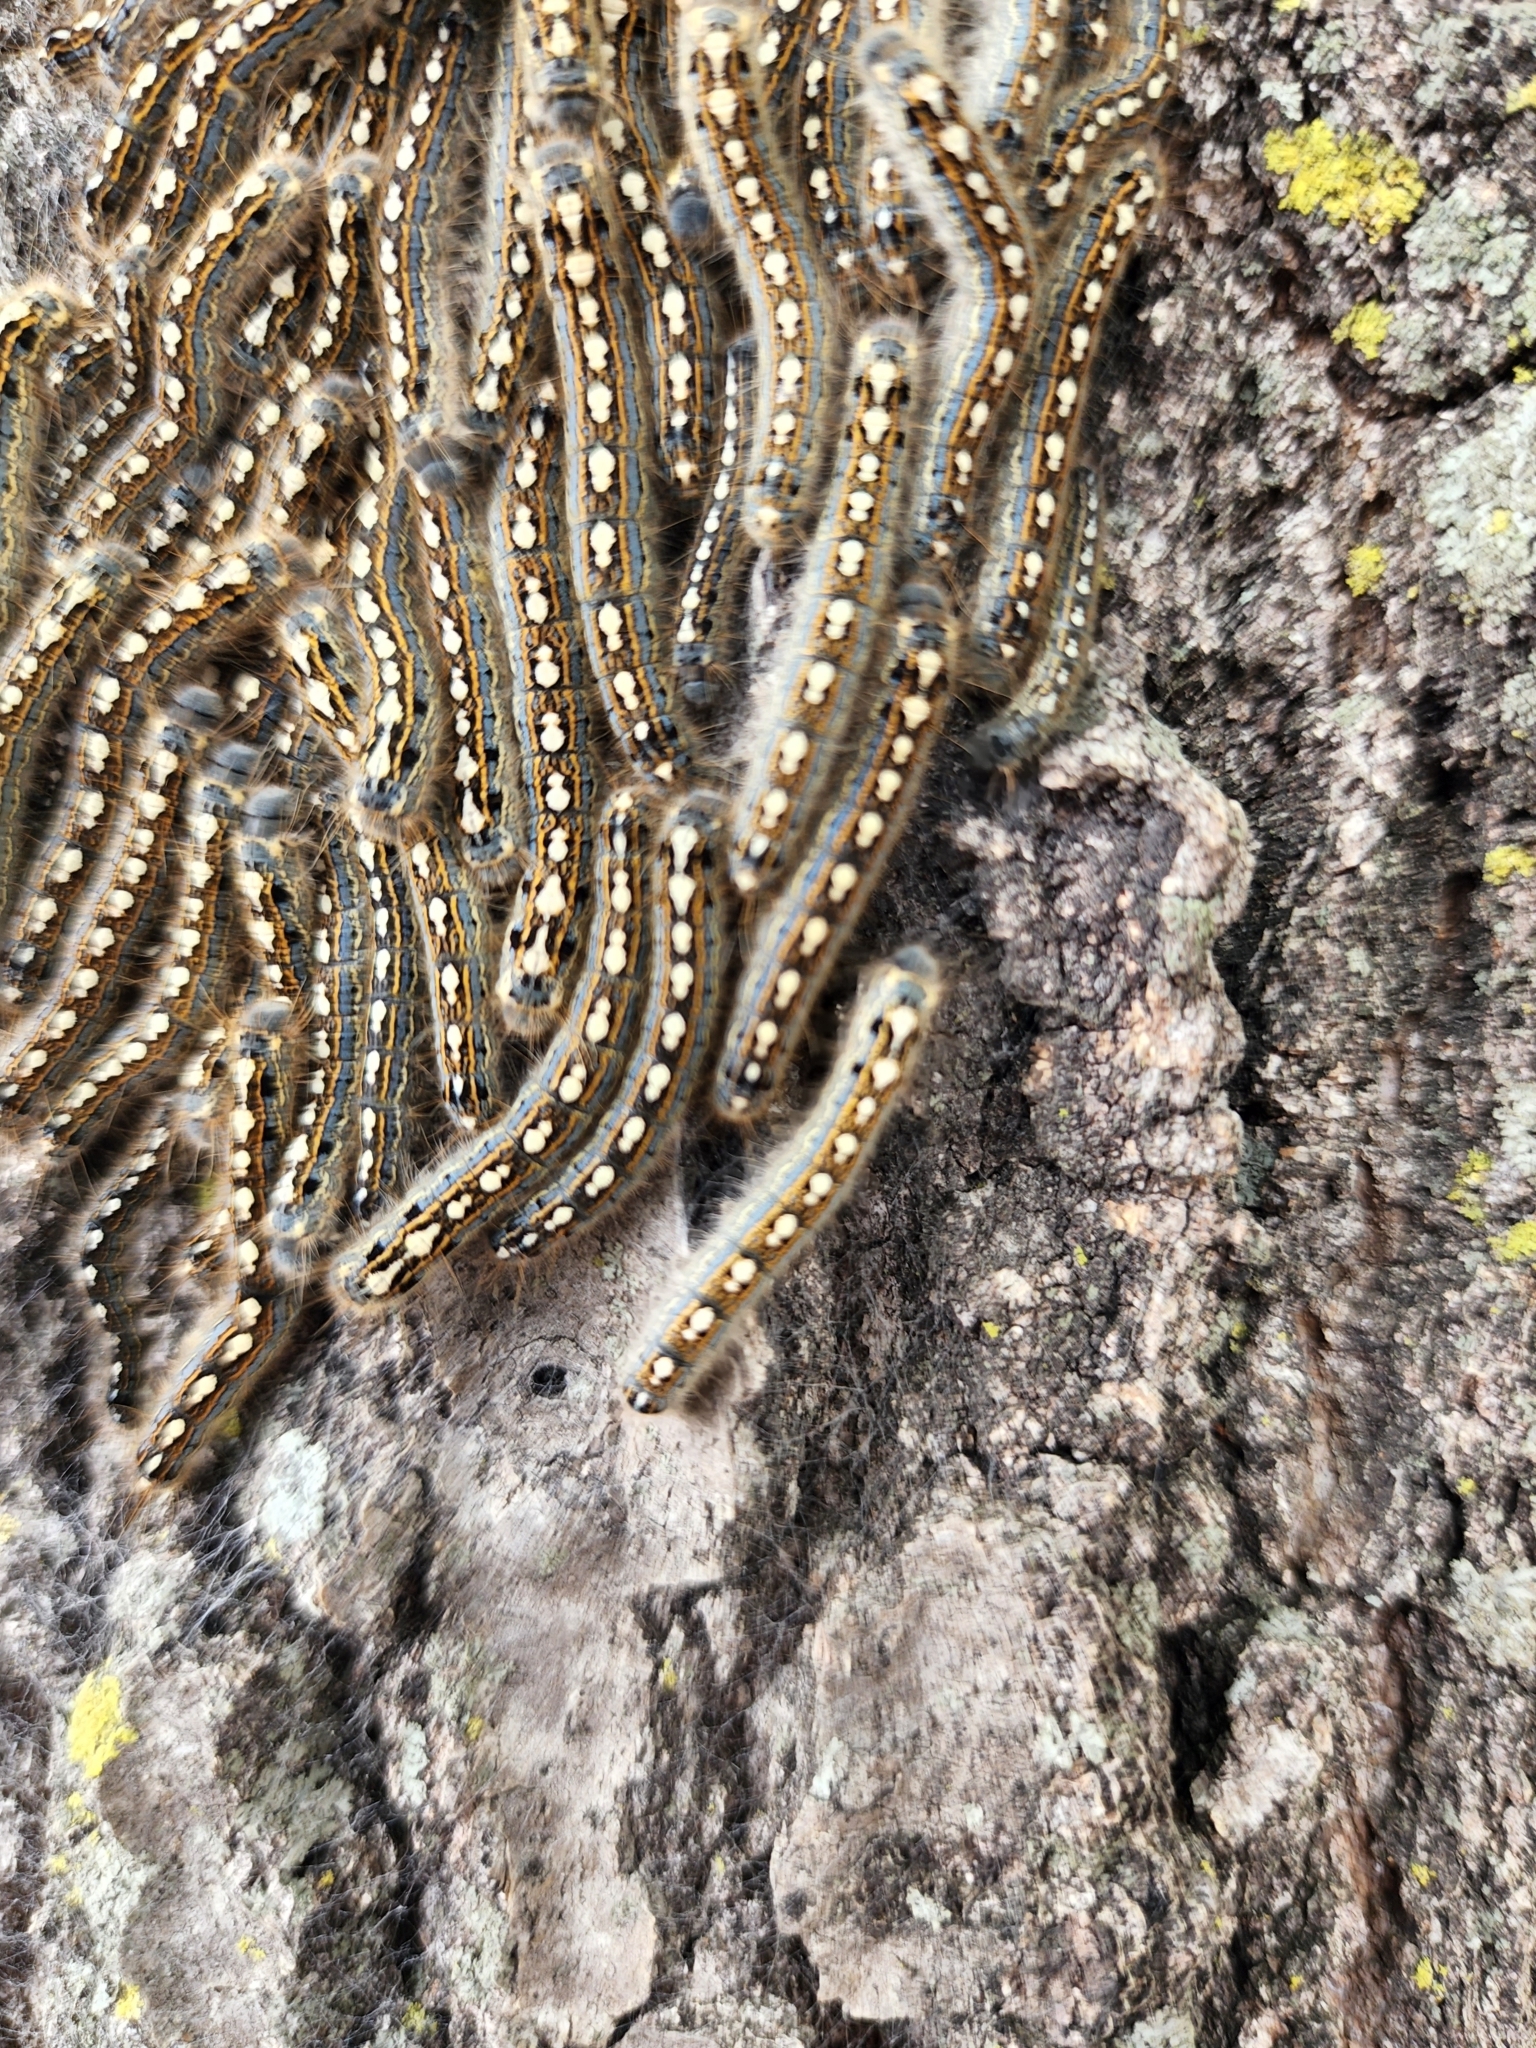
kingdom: Animalia
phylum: Arthropoda
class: Insecta
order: Lepidoptera
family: Lasiocampidae
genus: Malacosoma
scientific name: Malacosoma disstria
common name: Forest tent caterpillar
